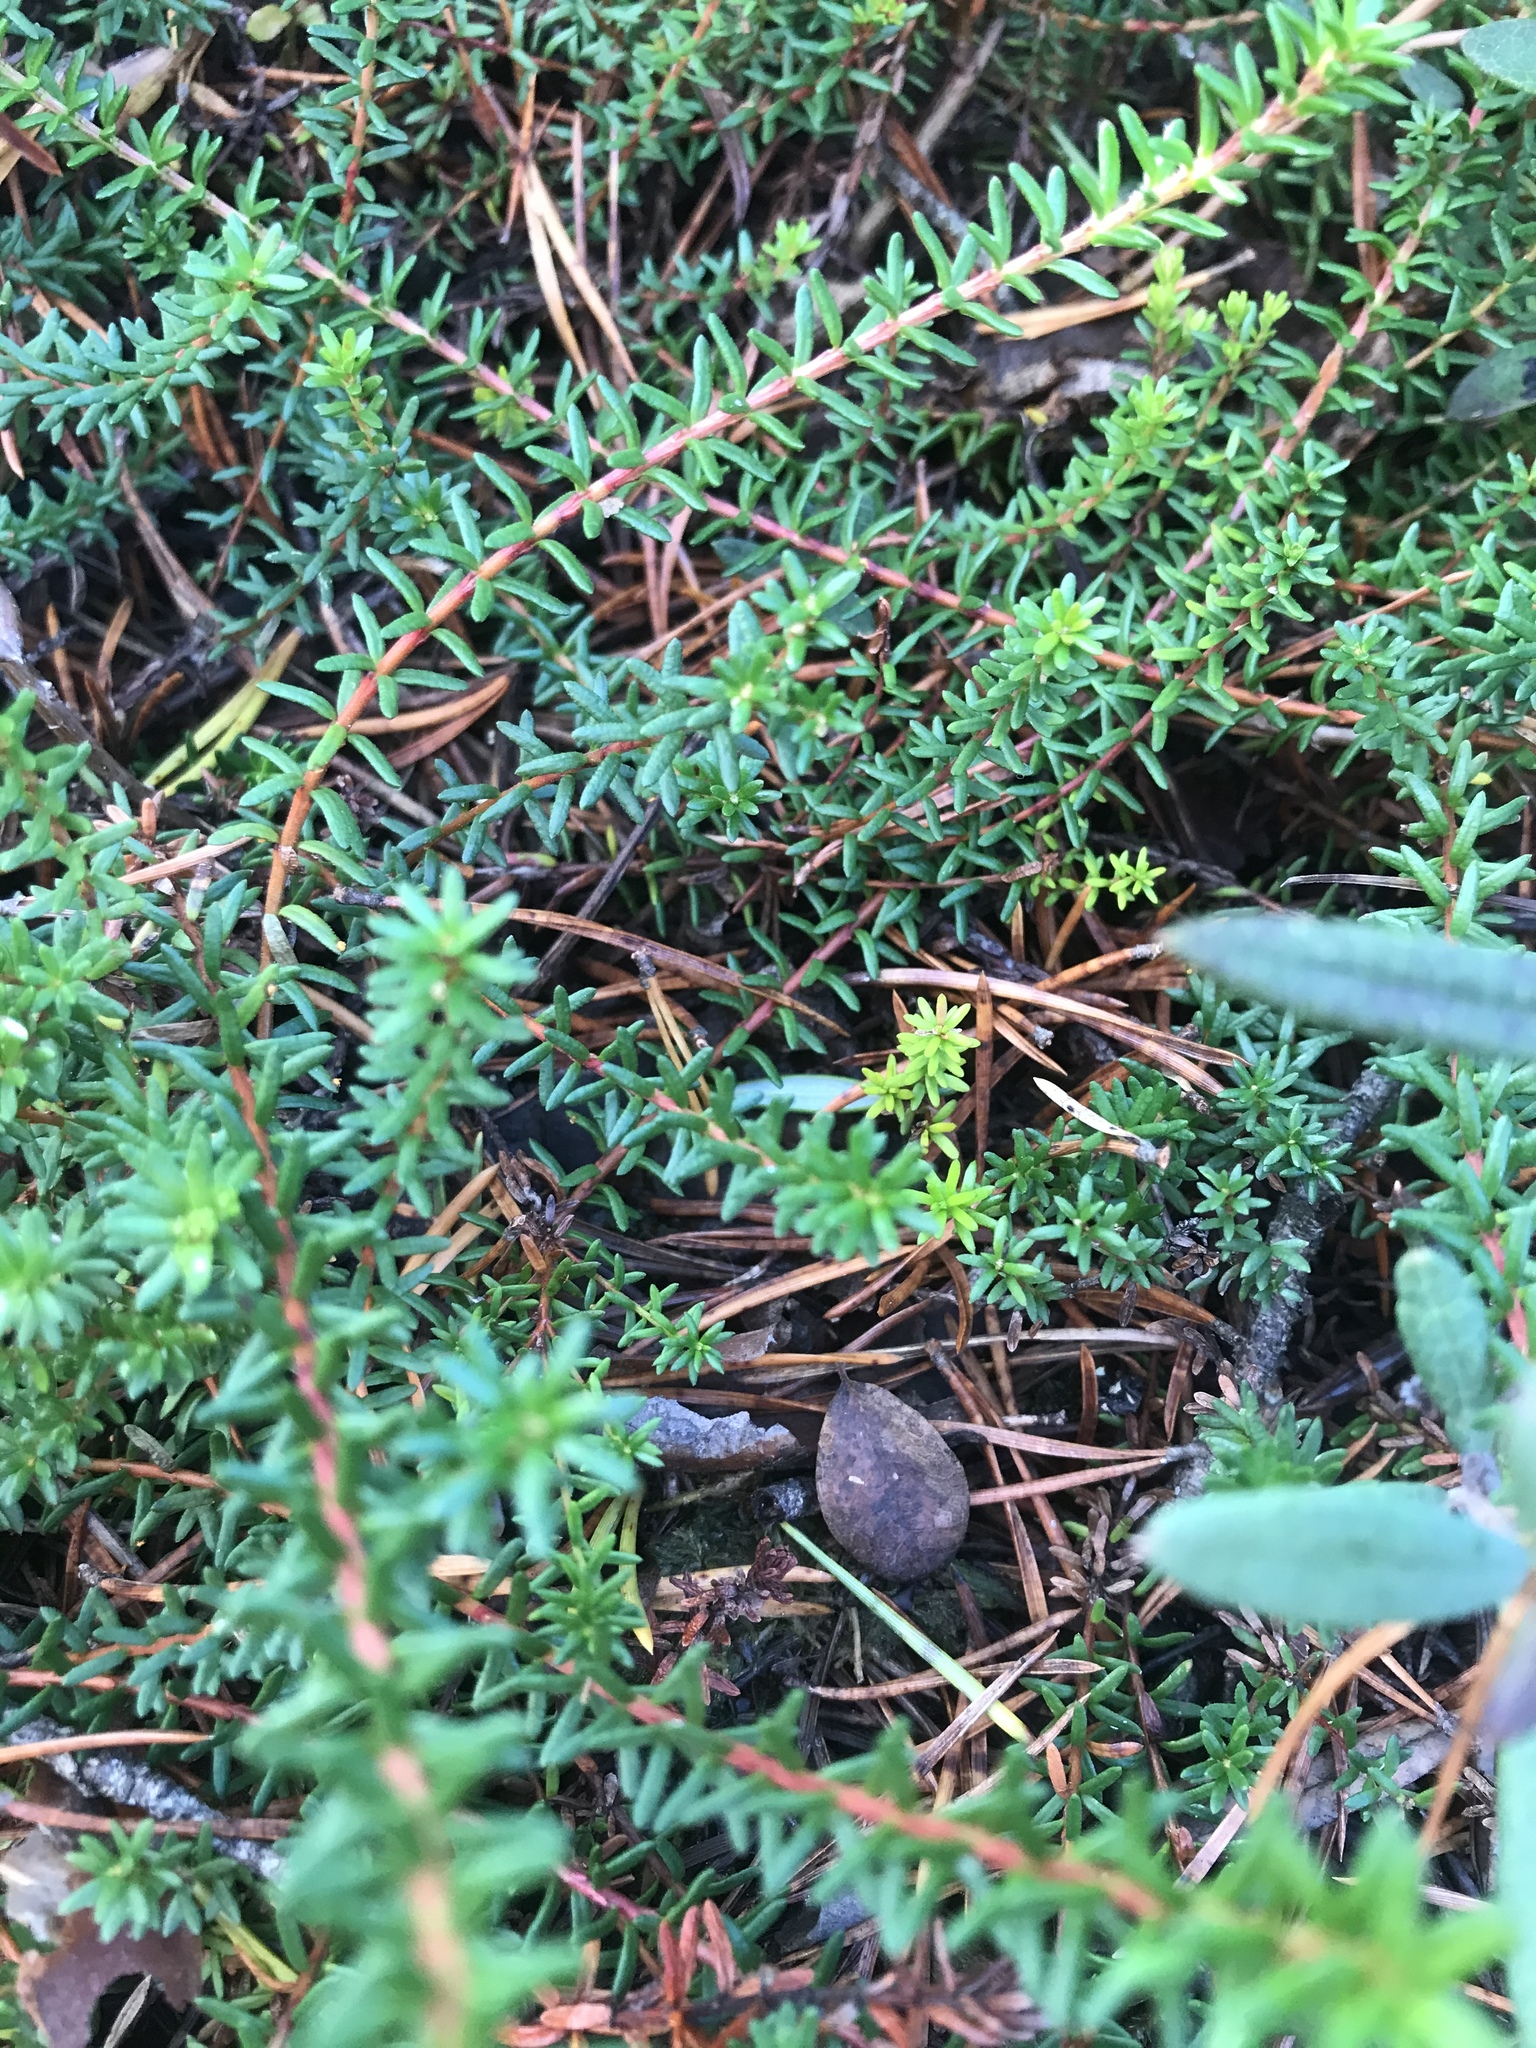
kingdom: Plantae
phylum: Tracheophyta
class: Magnoliopsida
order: Ericales
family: Ericaceae
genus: Empetrum
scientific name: Empetrum nigrum
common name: Black crowberry
